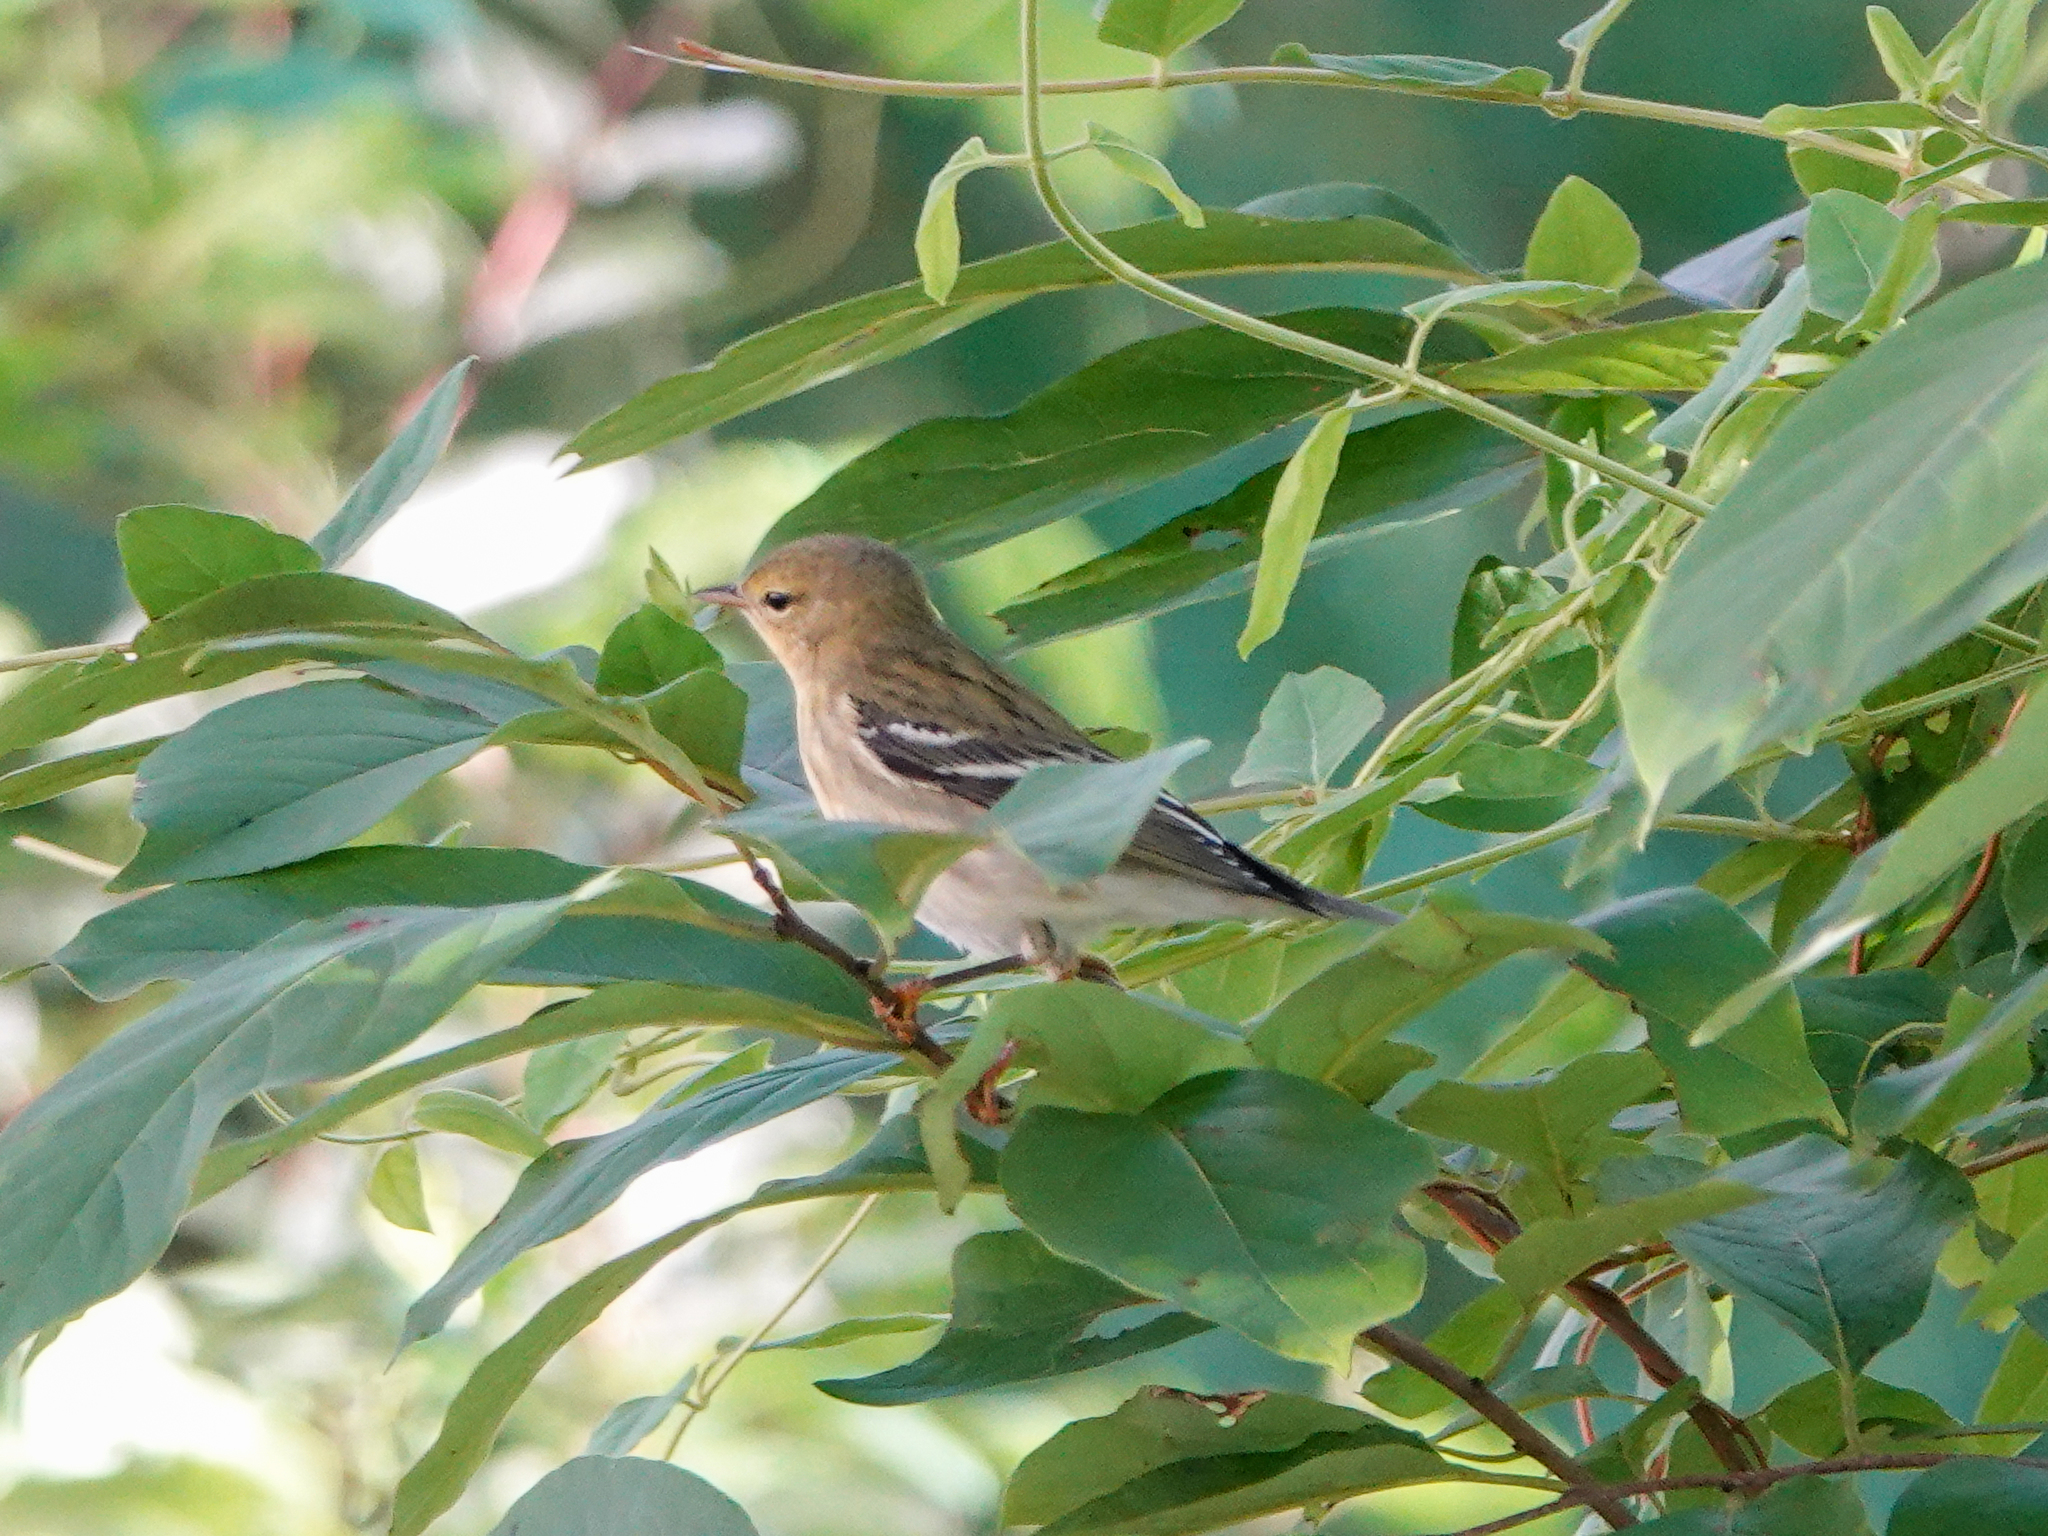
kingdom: Animalia
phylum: Chordata
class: Aves
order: Passeriformes
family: Parulidae
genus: Setophaga
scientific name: Setophaga striata
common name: Blackpoll warbler
